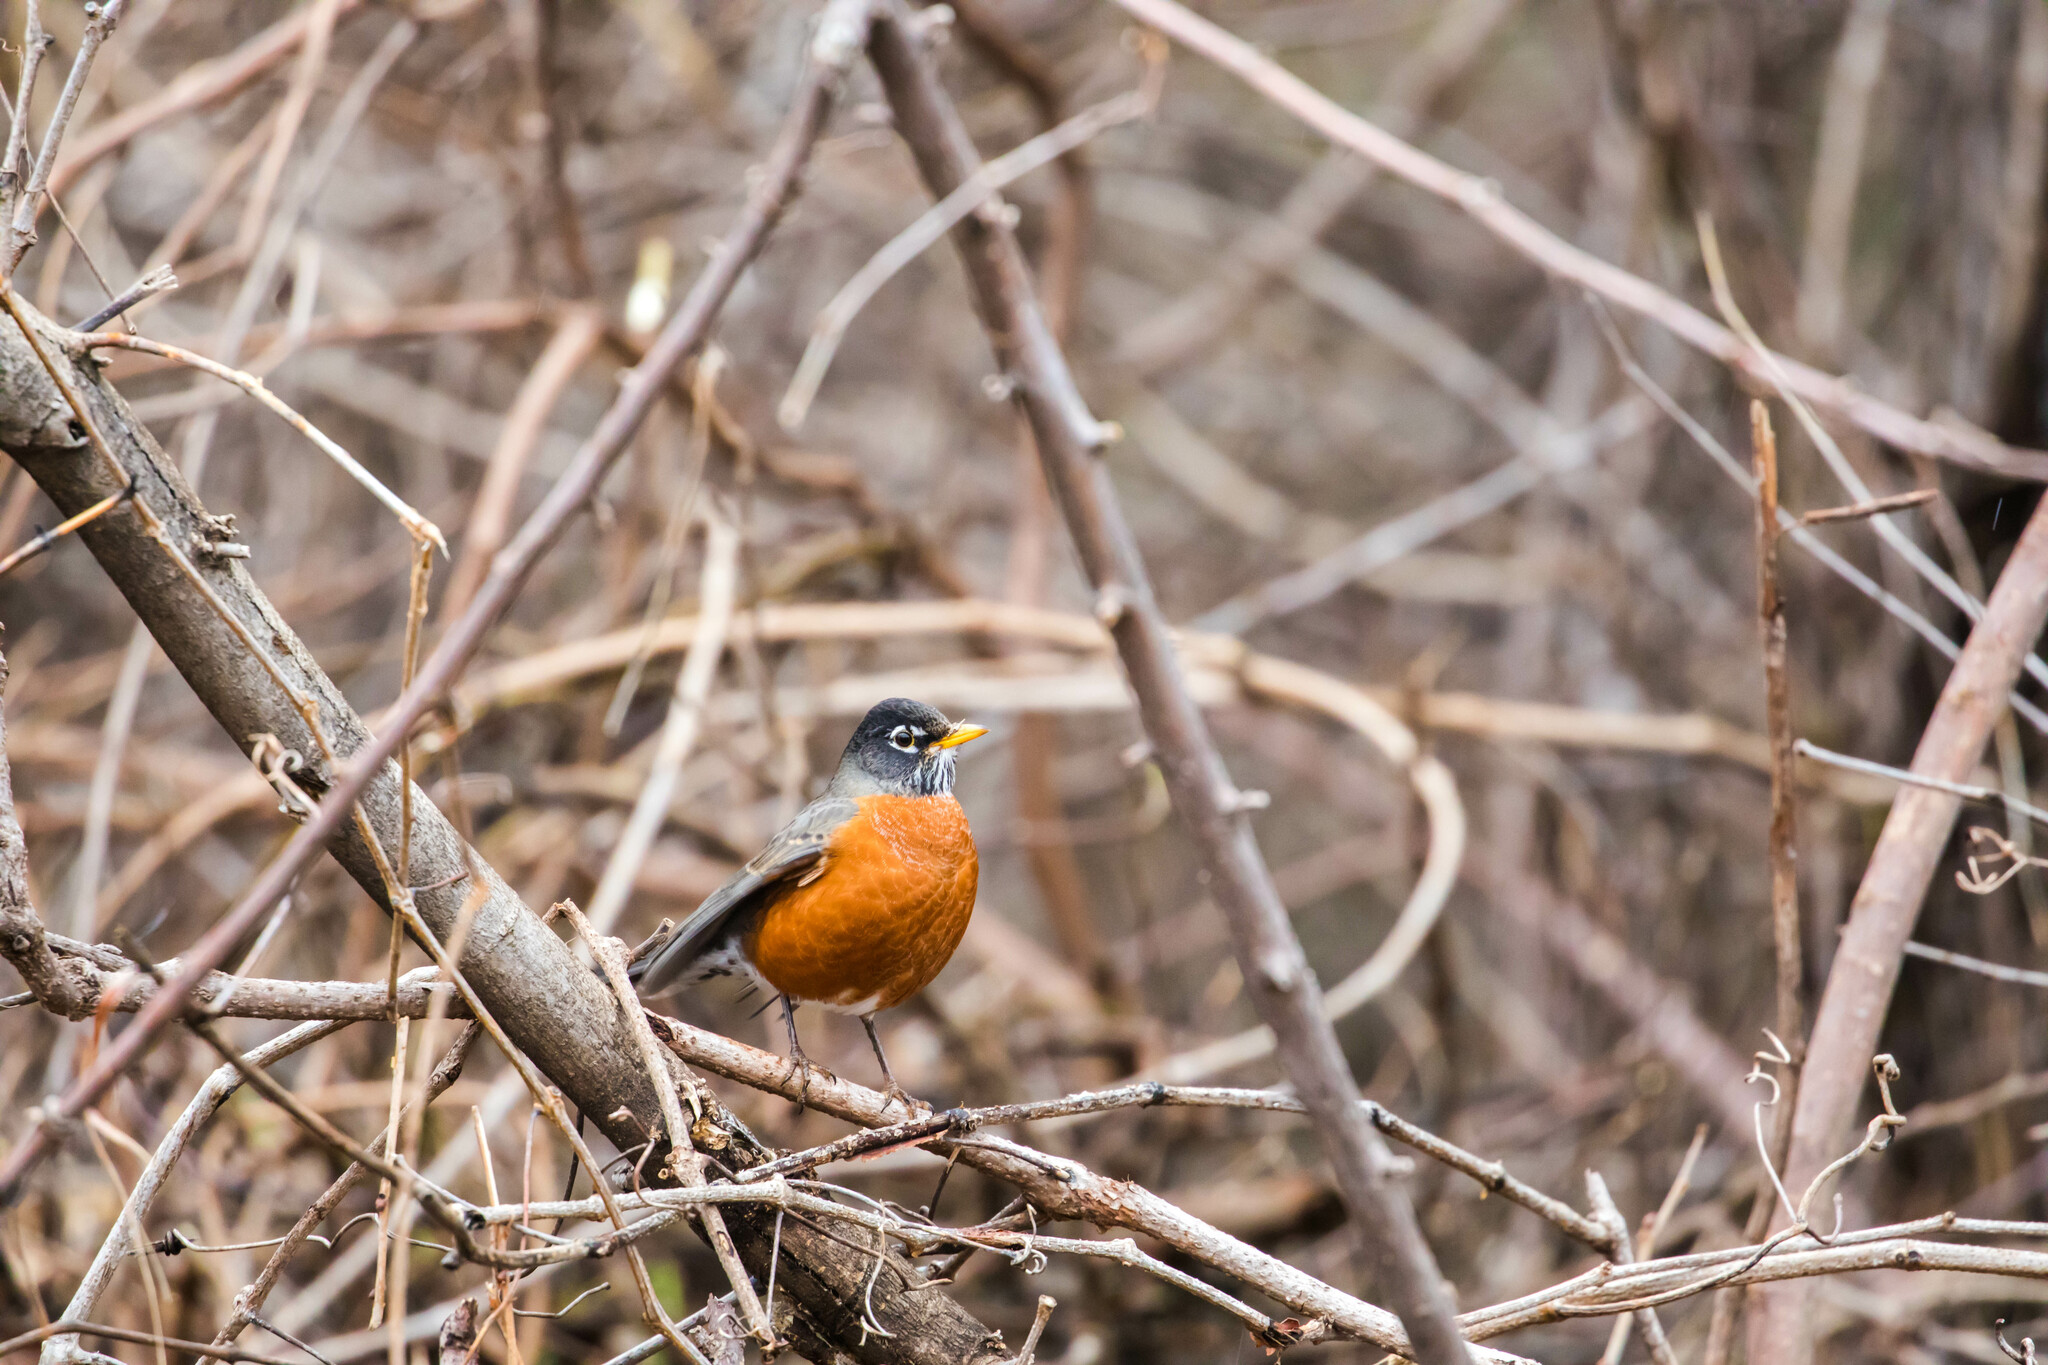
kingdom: Animalia
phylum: Chordata
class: Aves
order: Passeriformes
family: Turdidae
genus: Turdus
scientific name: Turdus migratorius
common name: American robin
